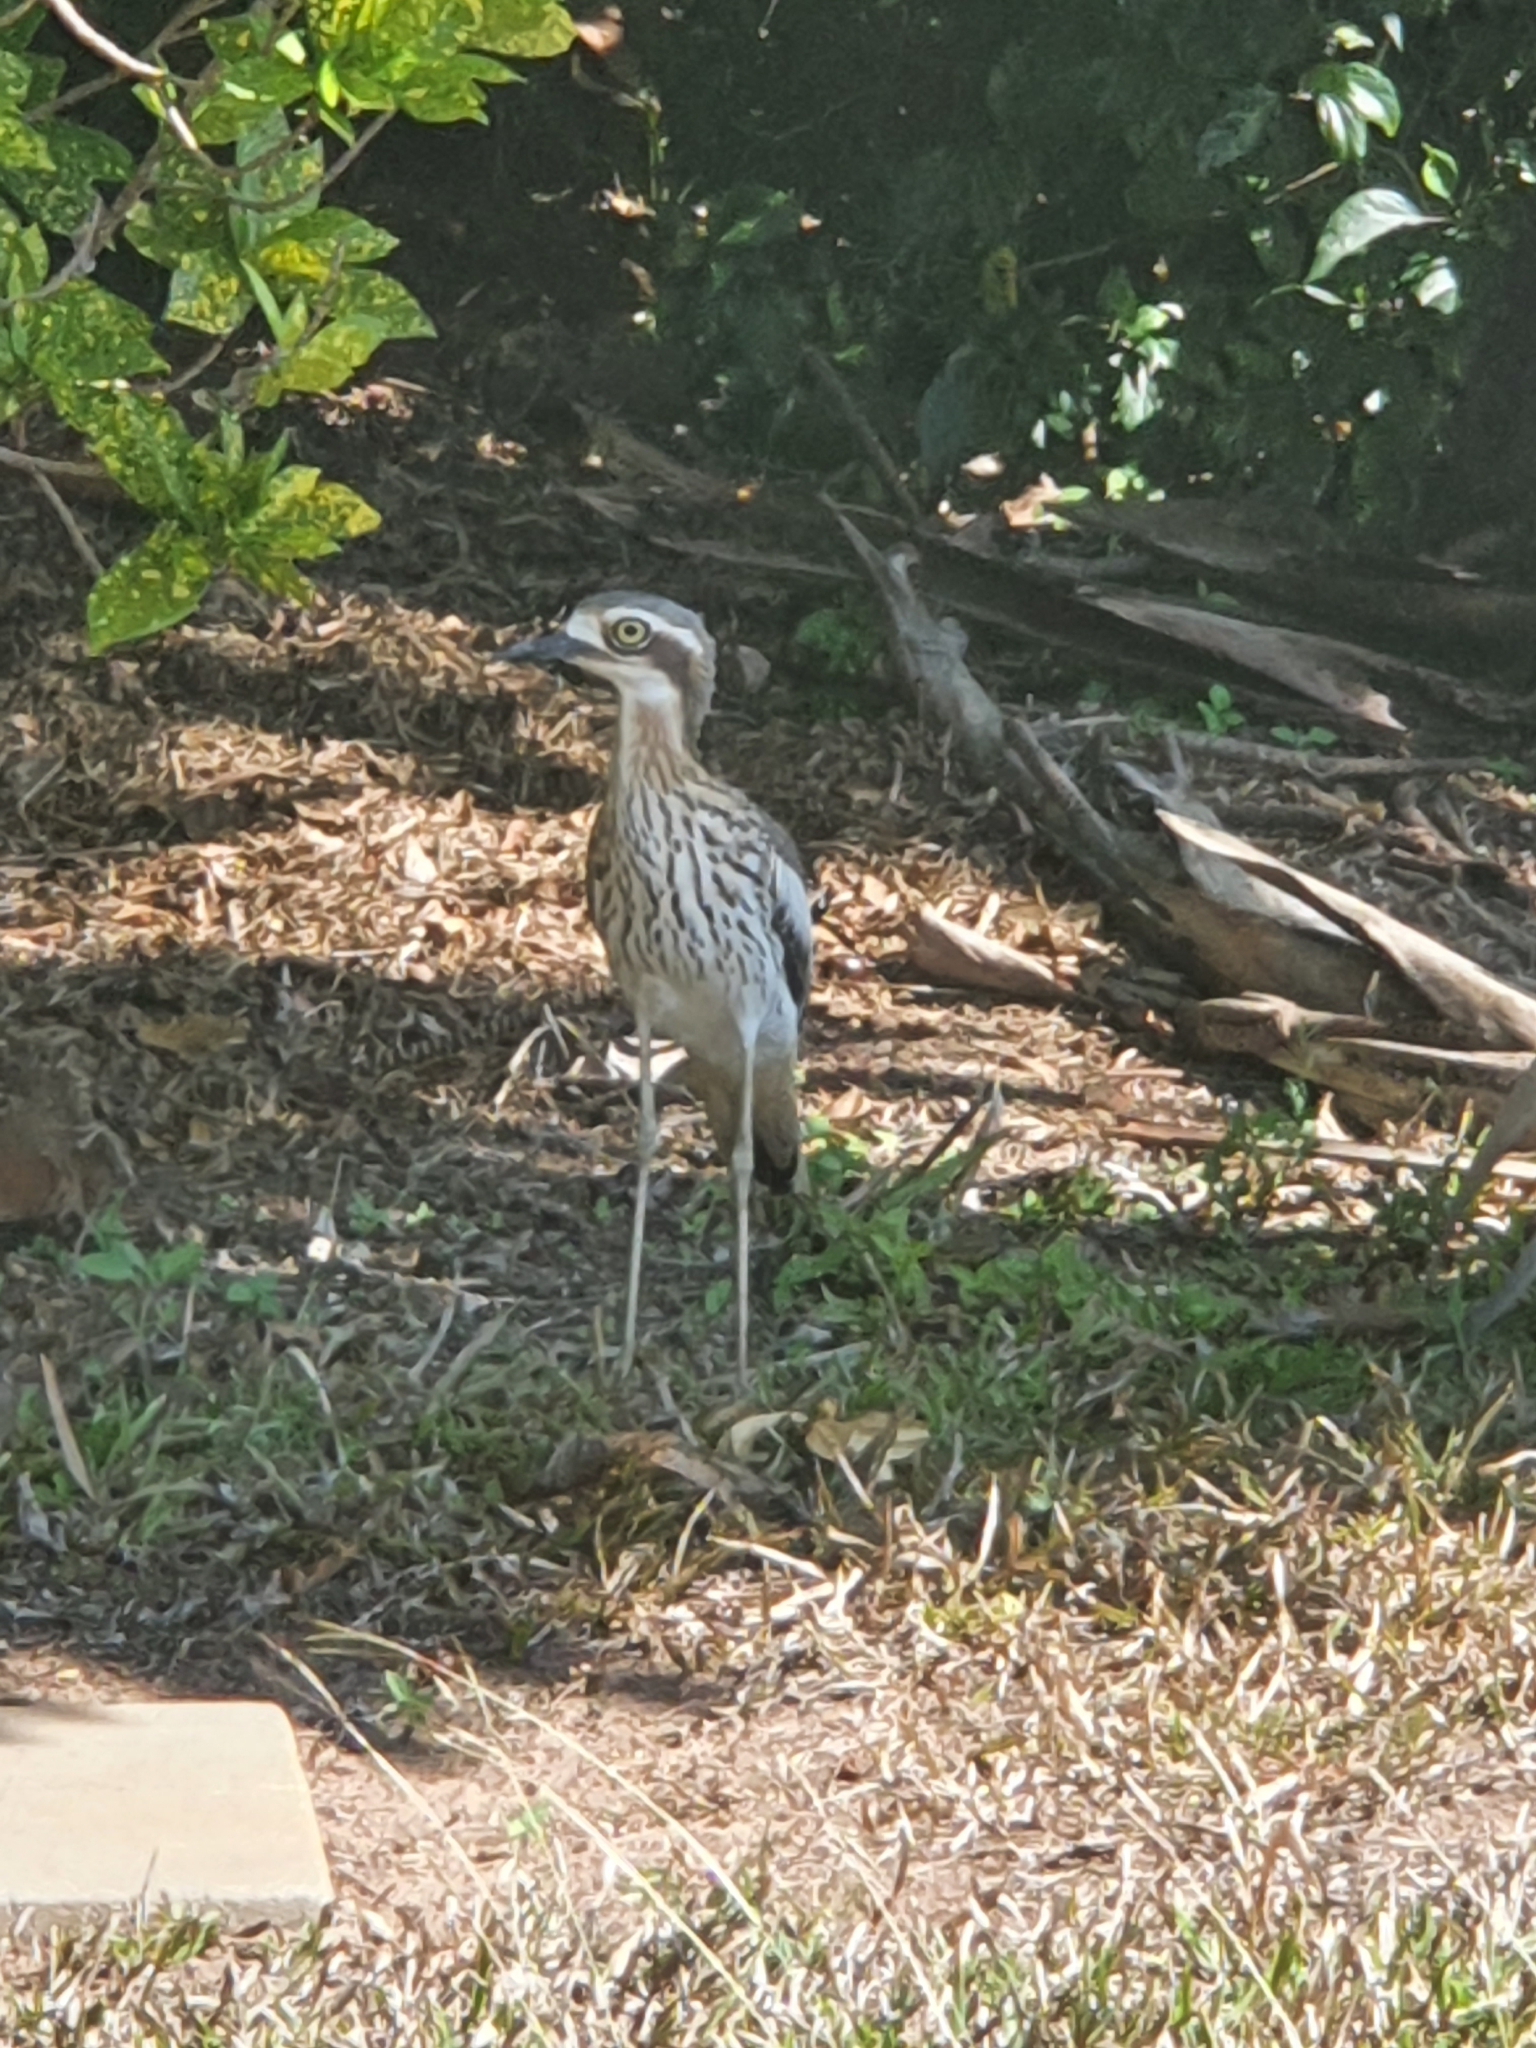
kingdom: Animalia
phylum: Chordata
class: Aves
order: Charadriiformes
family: Burhinidae
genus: Burhinus
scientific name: Burhinus grallarius
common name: Bush stone-curlew
